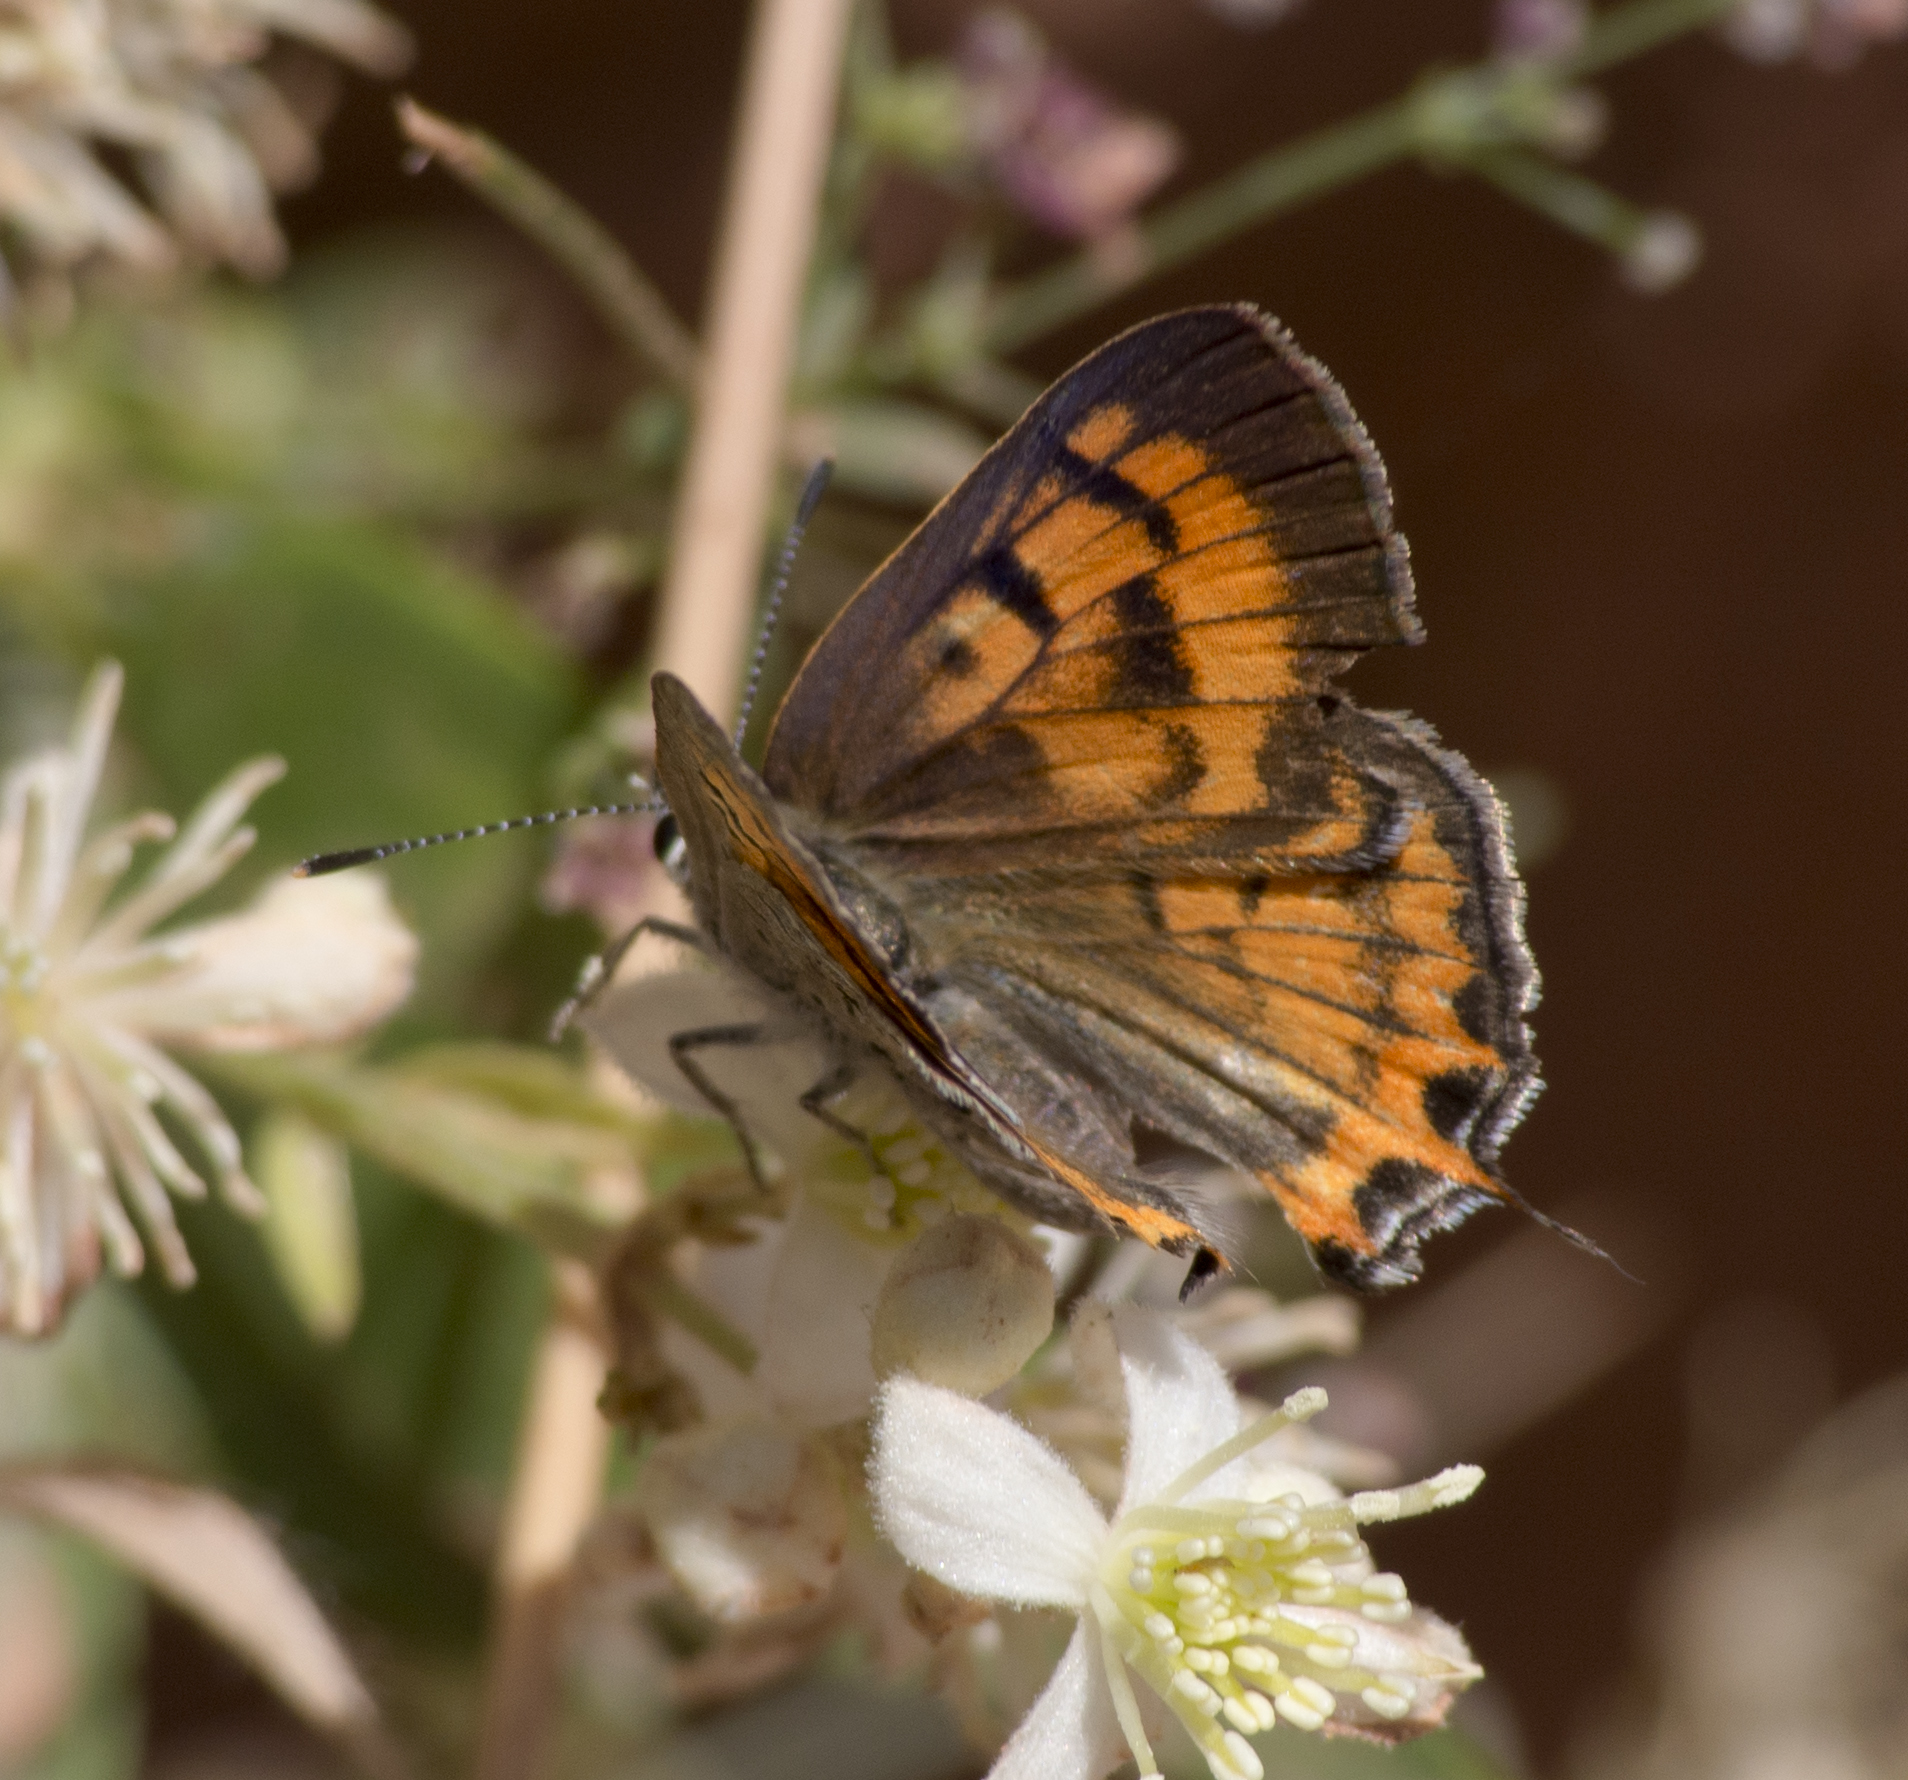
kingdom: Animalia
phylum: Arthropoda
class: Insecta
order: Lepidoptera
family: Lycaenidae
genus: Tharsalea
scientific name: Tharsalea arota
